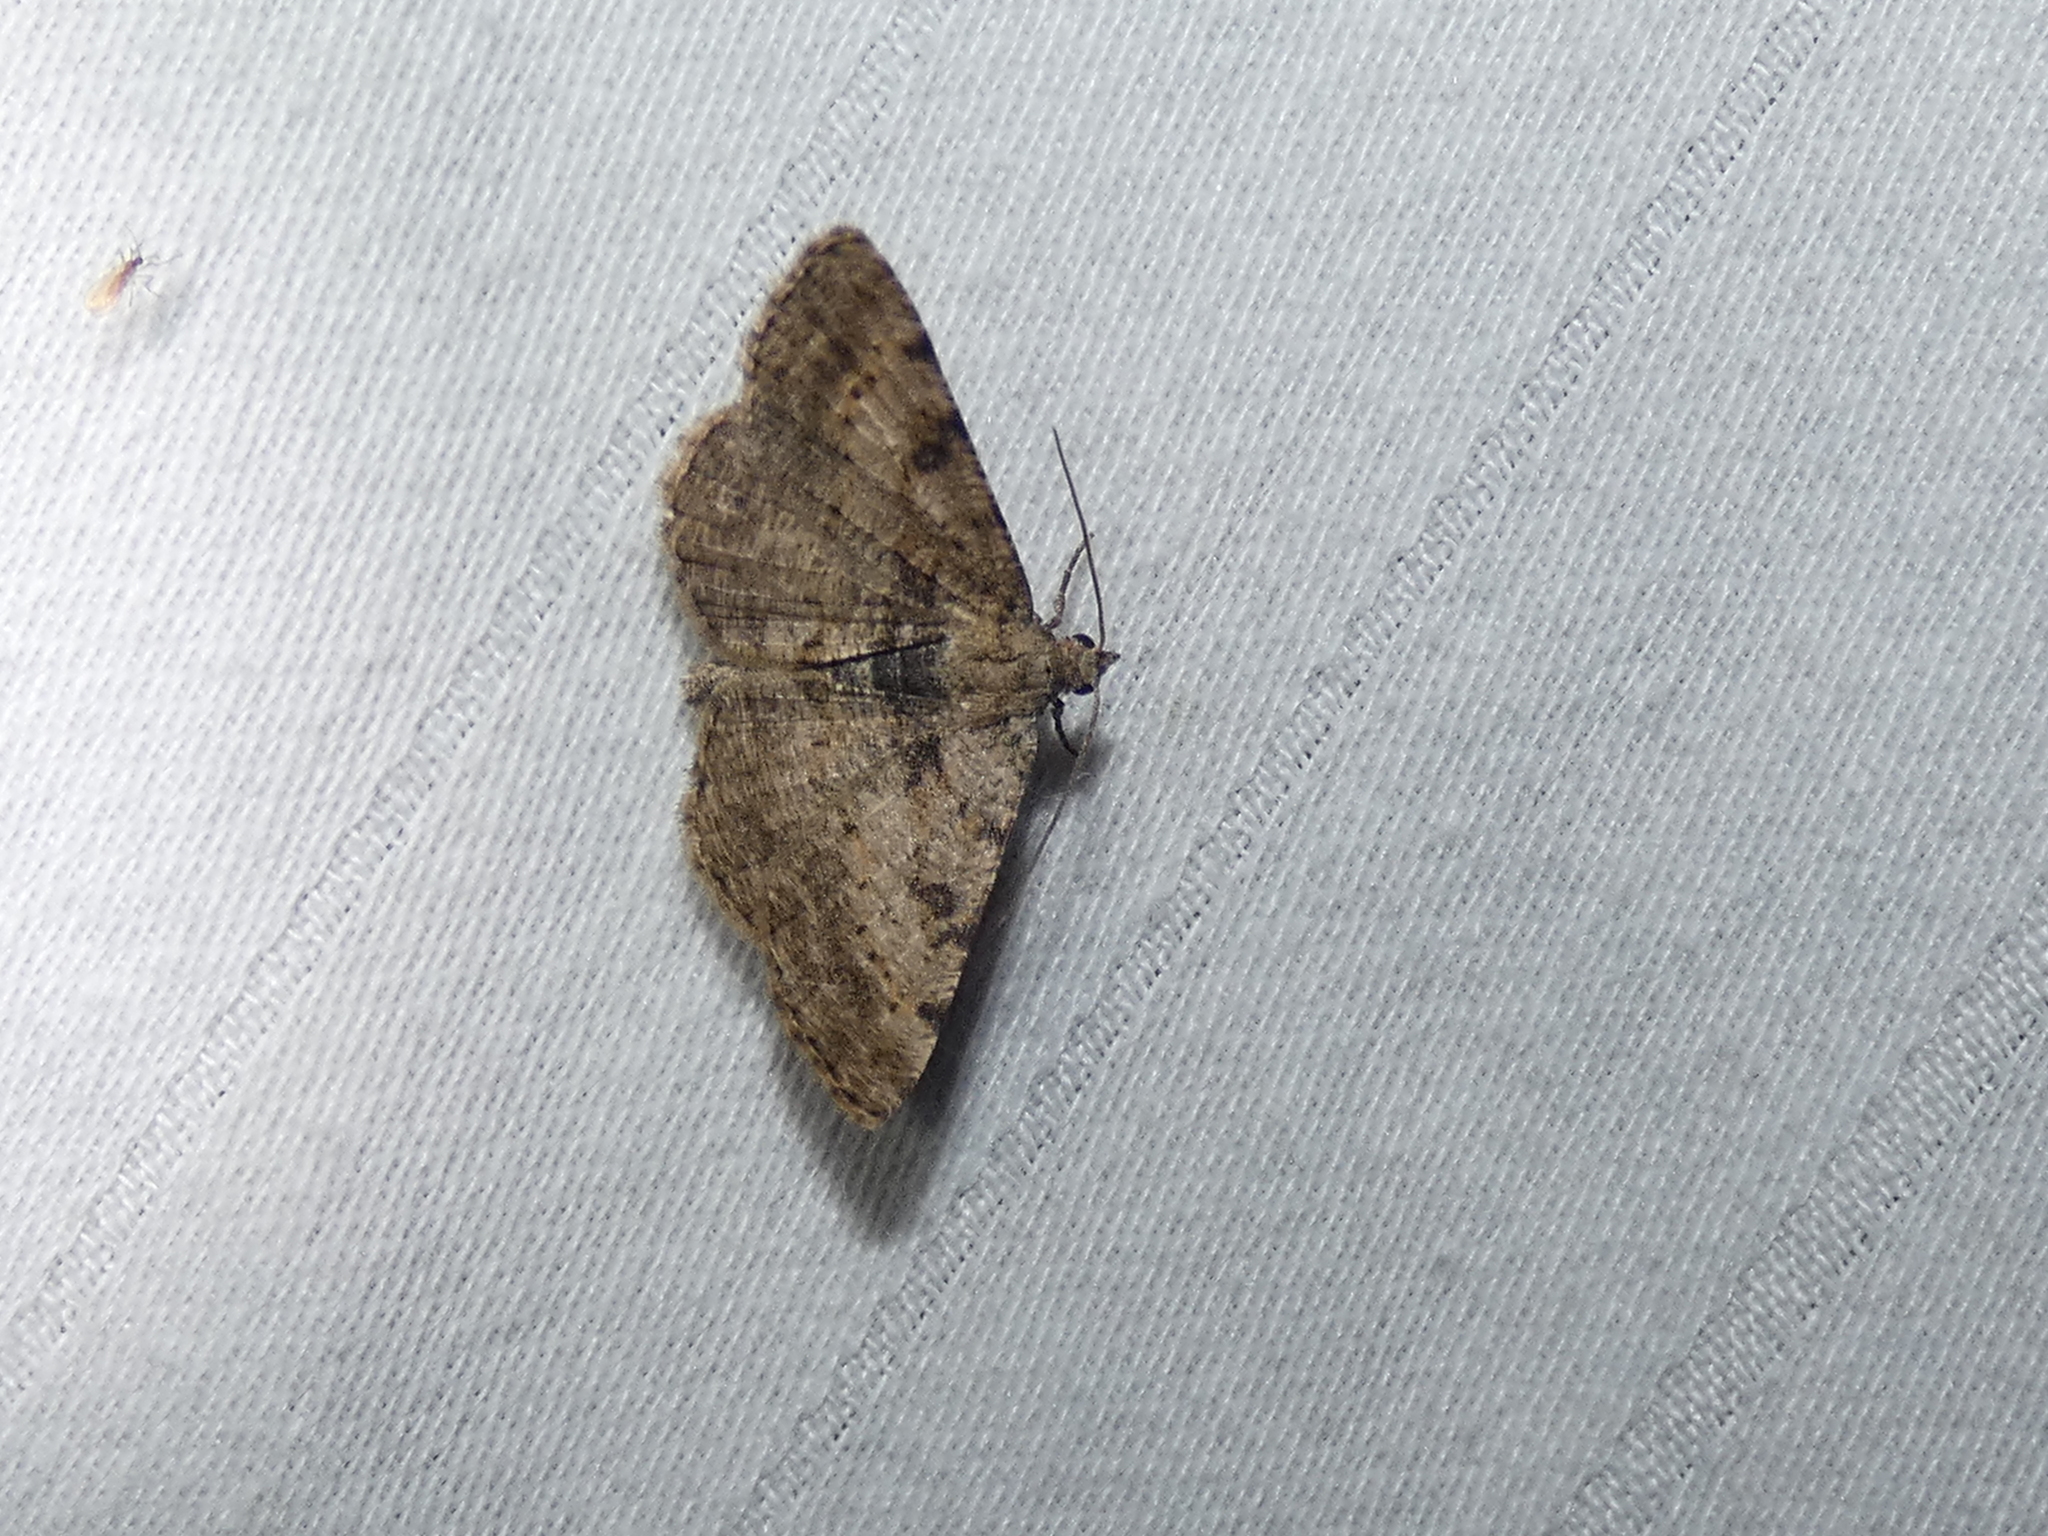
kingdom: Animalia
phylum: Arthropoda
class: Insecta
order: Lepidoptera
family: Geometridae
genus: Digrammia
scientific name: Digrammia gnophosaria
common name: Hollow-spotted angle
